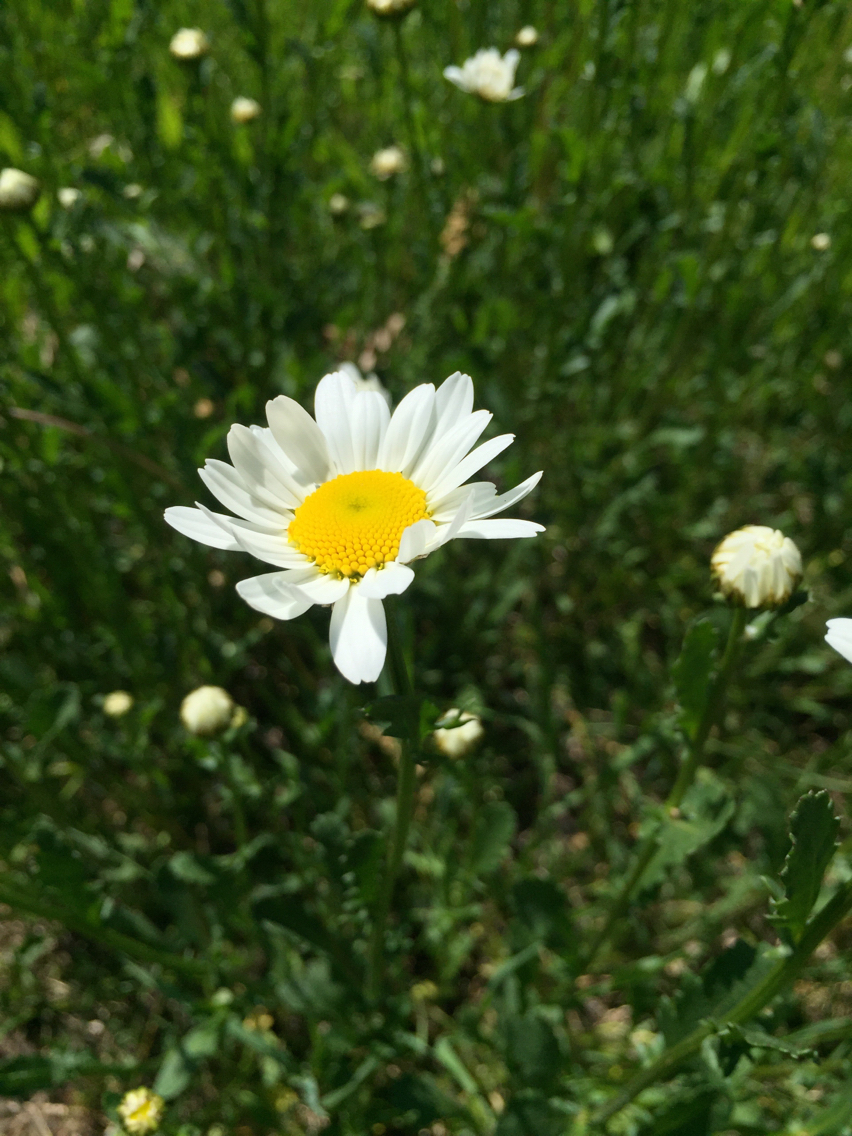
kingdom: Plantae
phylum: Tracheophyta
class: Magnoliopsida
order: Asterales
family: Asteraceae
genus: Leucanthemum
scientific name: Leucanthemum vulgare
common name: Oxeye daisy
